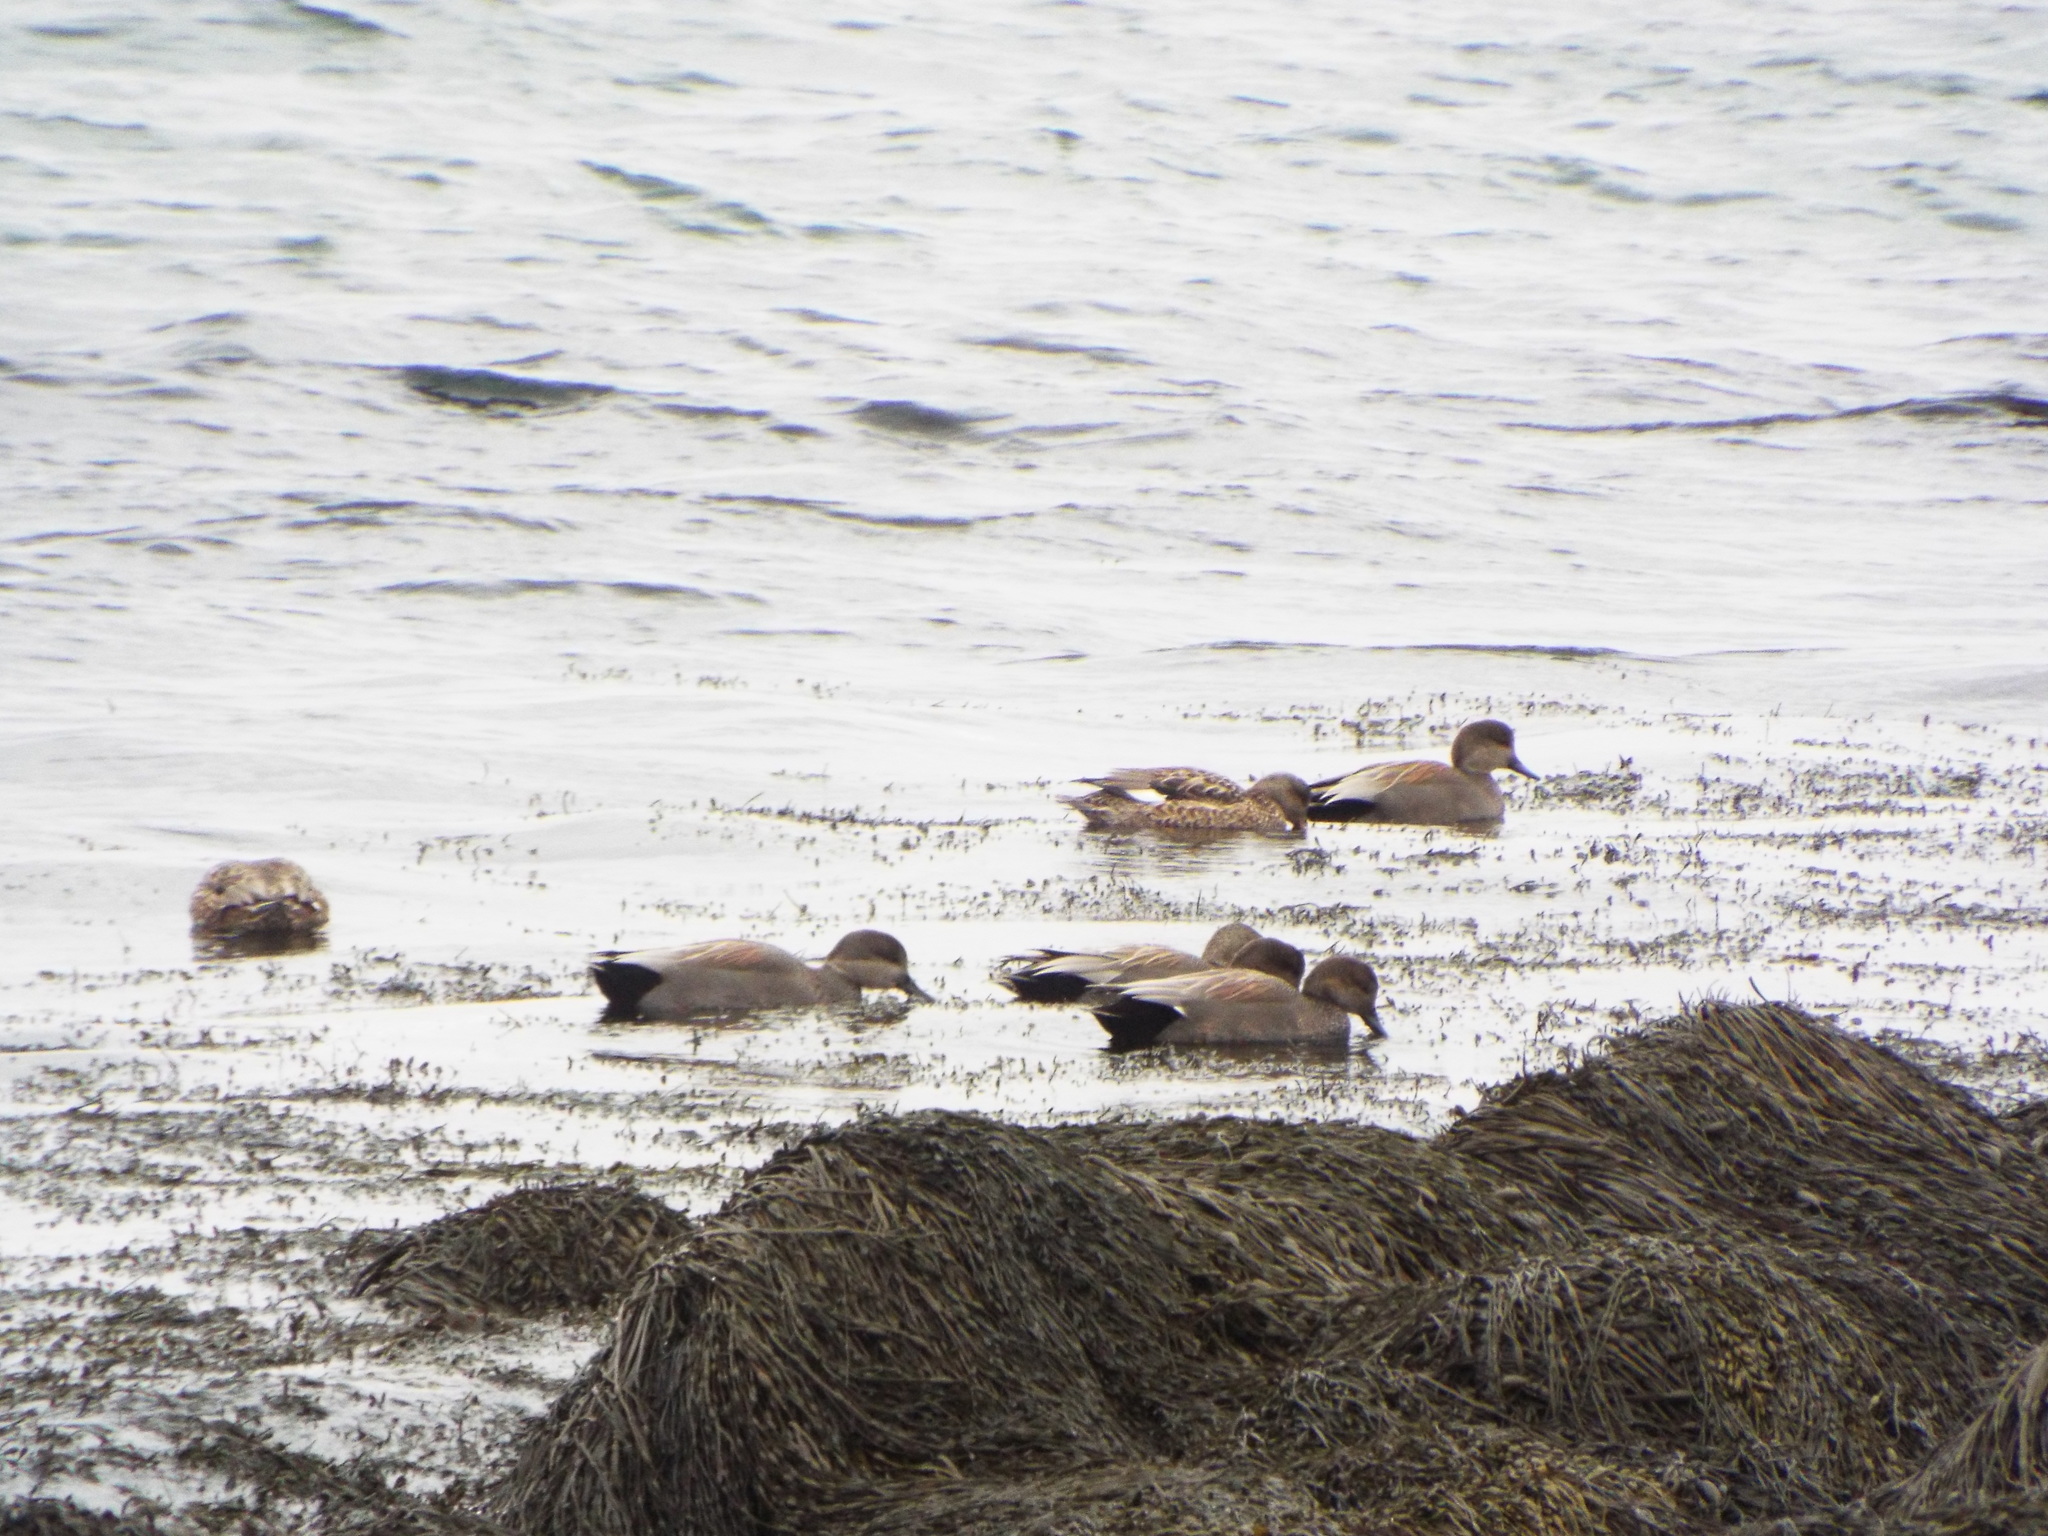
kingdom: Animalia
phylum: Chordata
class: Aves
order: Anseriformes
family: Anatidae
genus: Mareca
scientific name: Mareca strepera
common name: Gadwall
